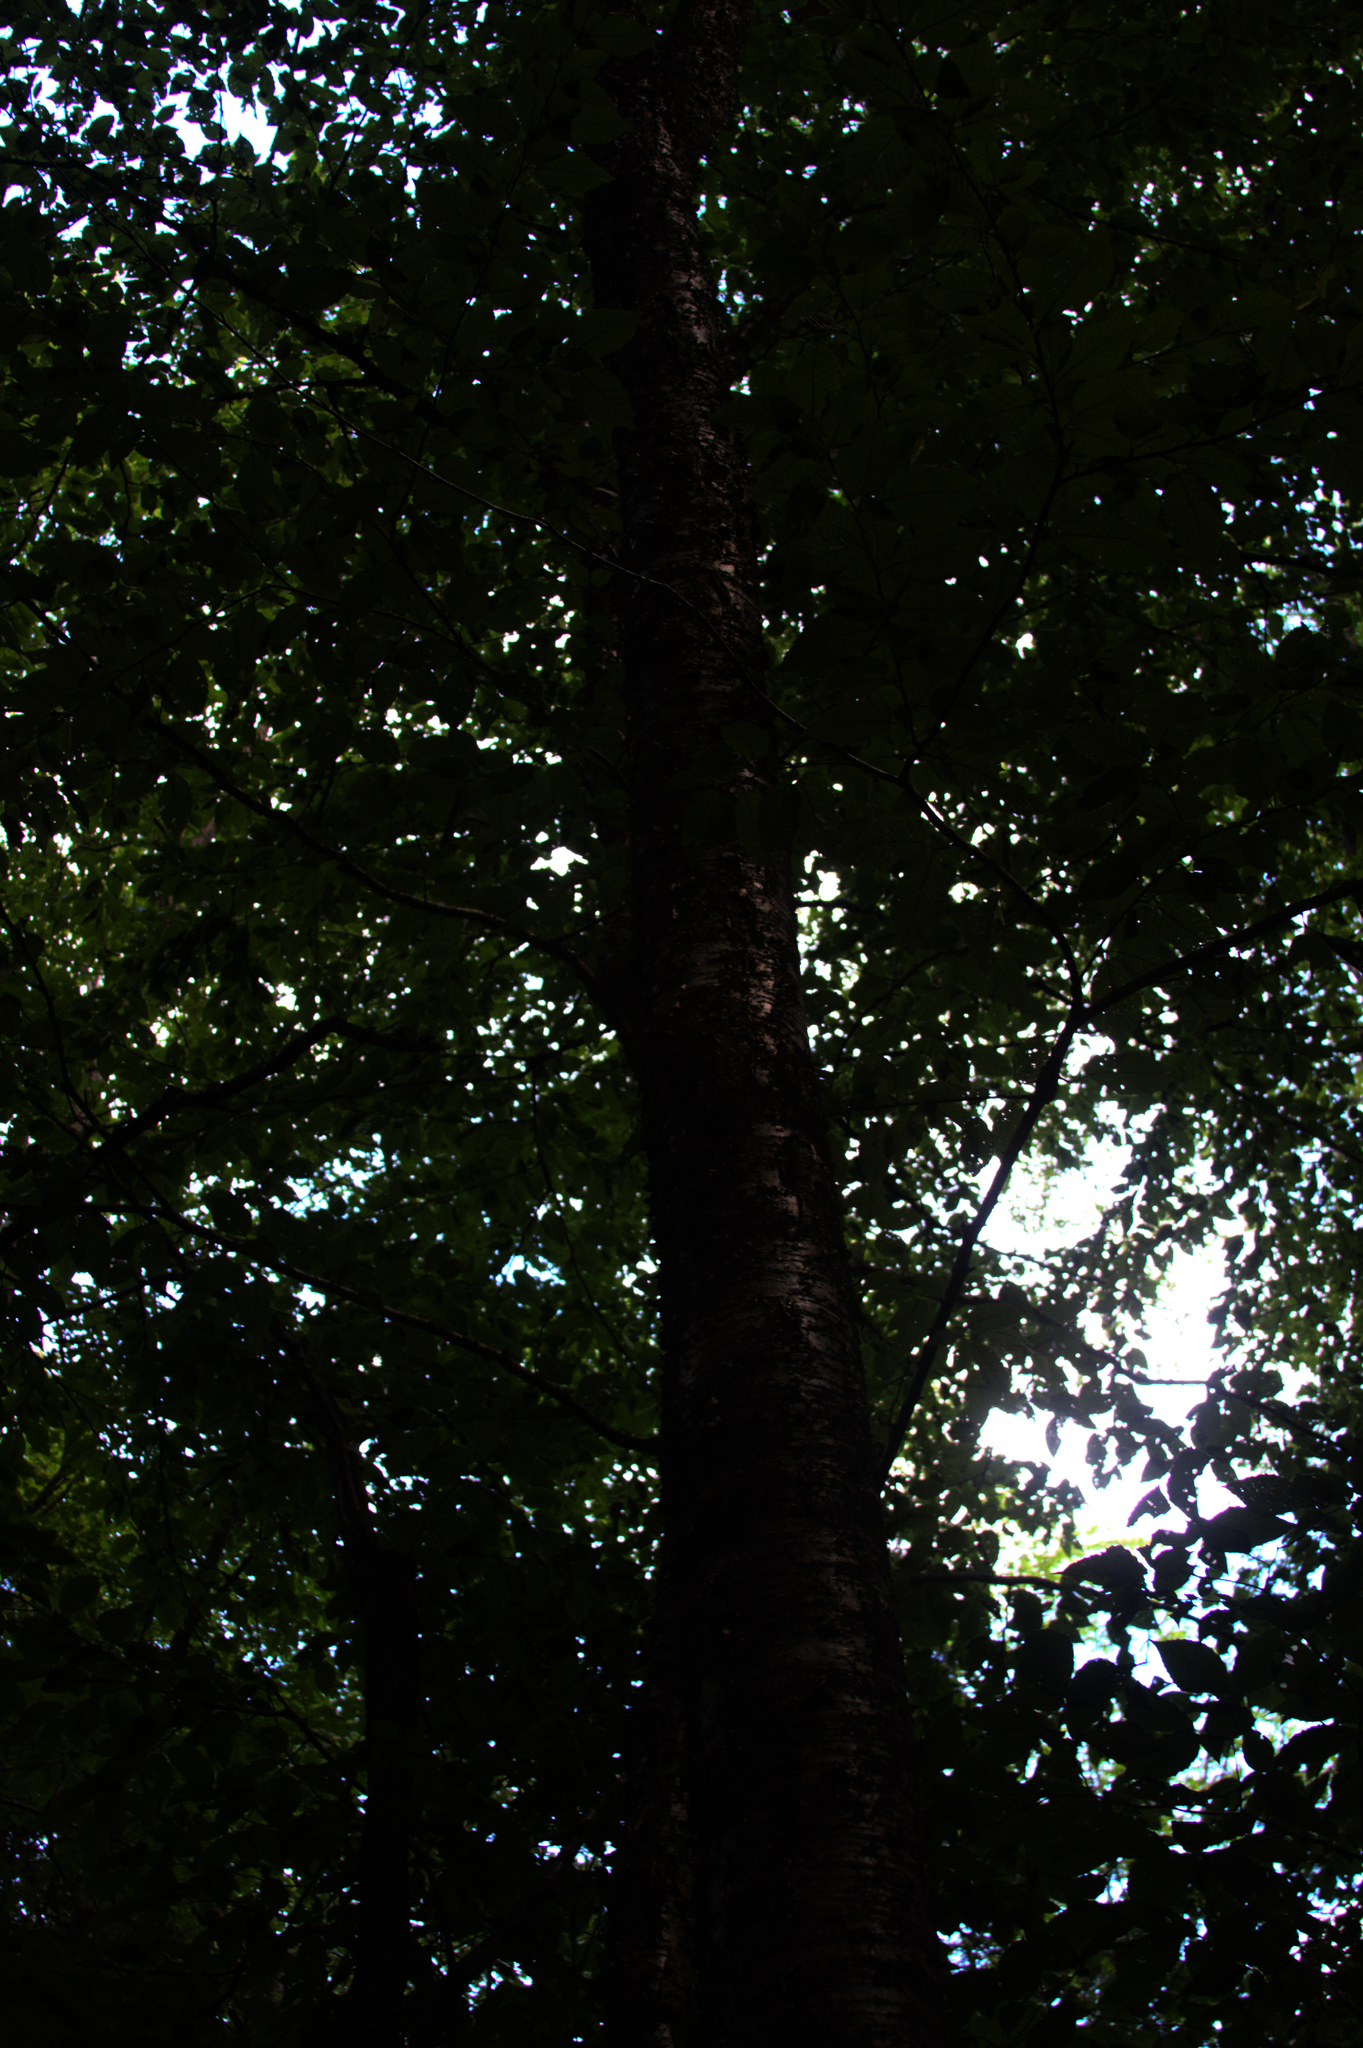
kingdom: Plantae
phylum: Tracheophyta
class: Magnoliopsida
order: Fagales
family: Betulaceae
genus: Betula
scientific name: Betula alleghaniensis
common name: Yellow birch
